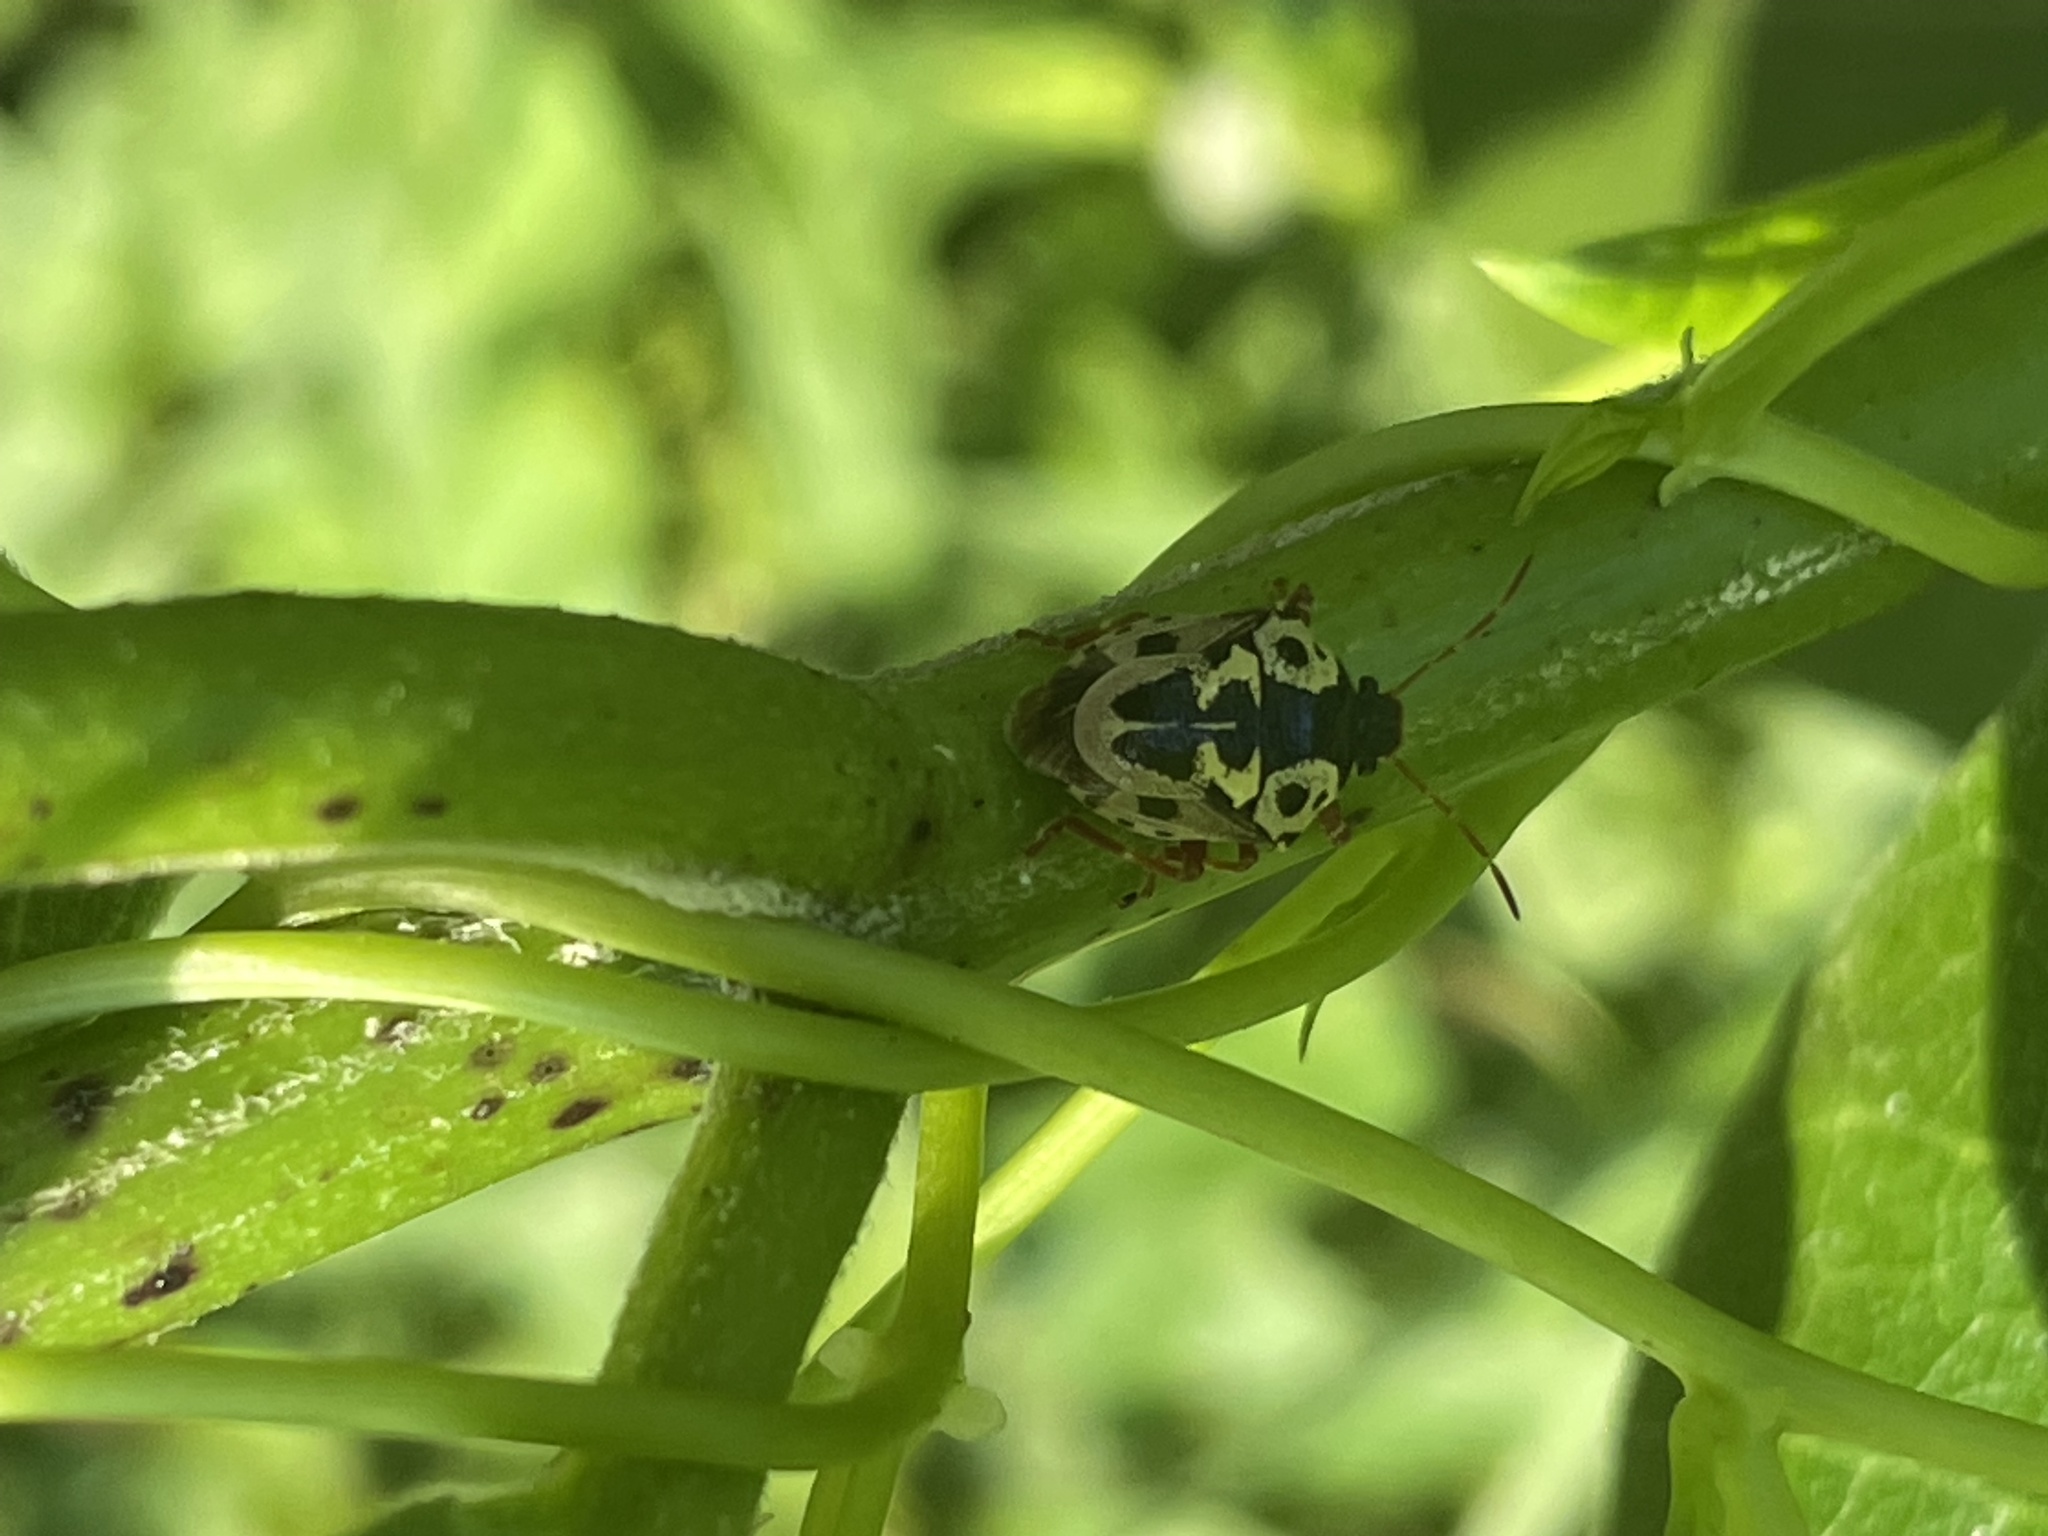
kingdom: Animalia
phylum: Arthropoda
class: Insecta
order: Hemiptera
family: Pentatomidae
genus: Stiretrus
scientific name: Stiretrus anchorago
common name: Anchor stink bug
